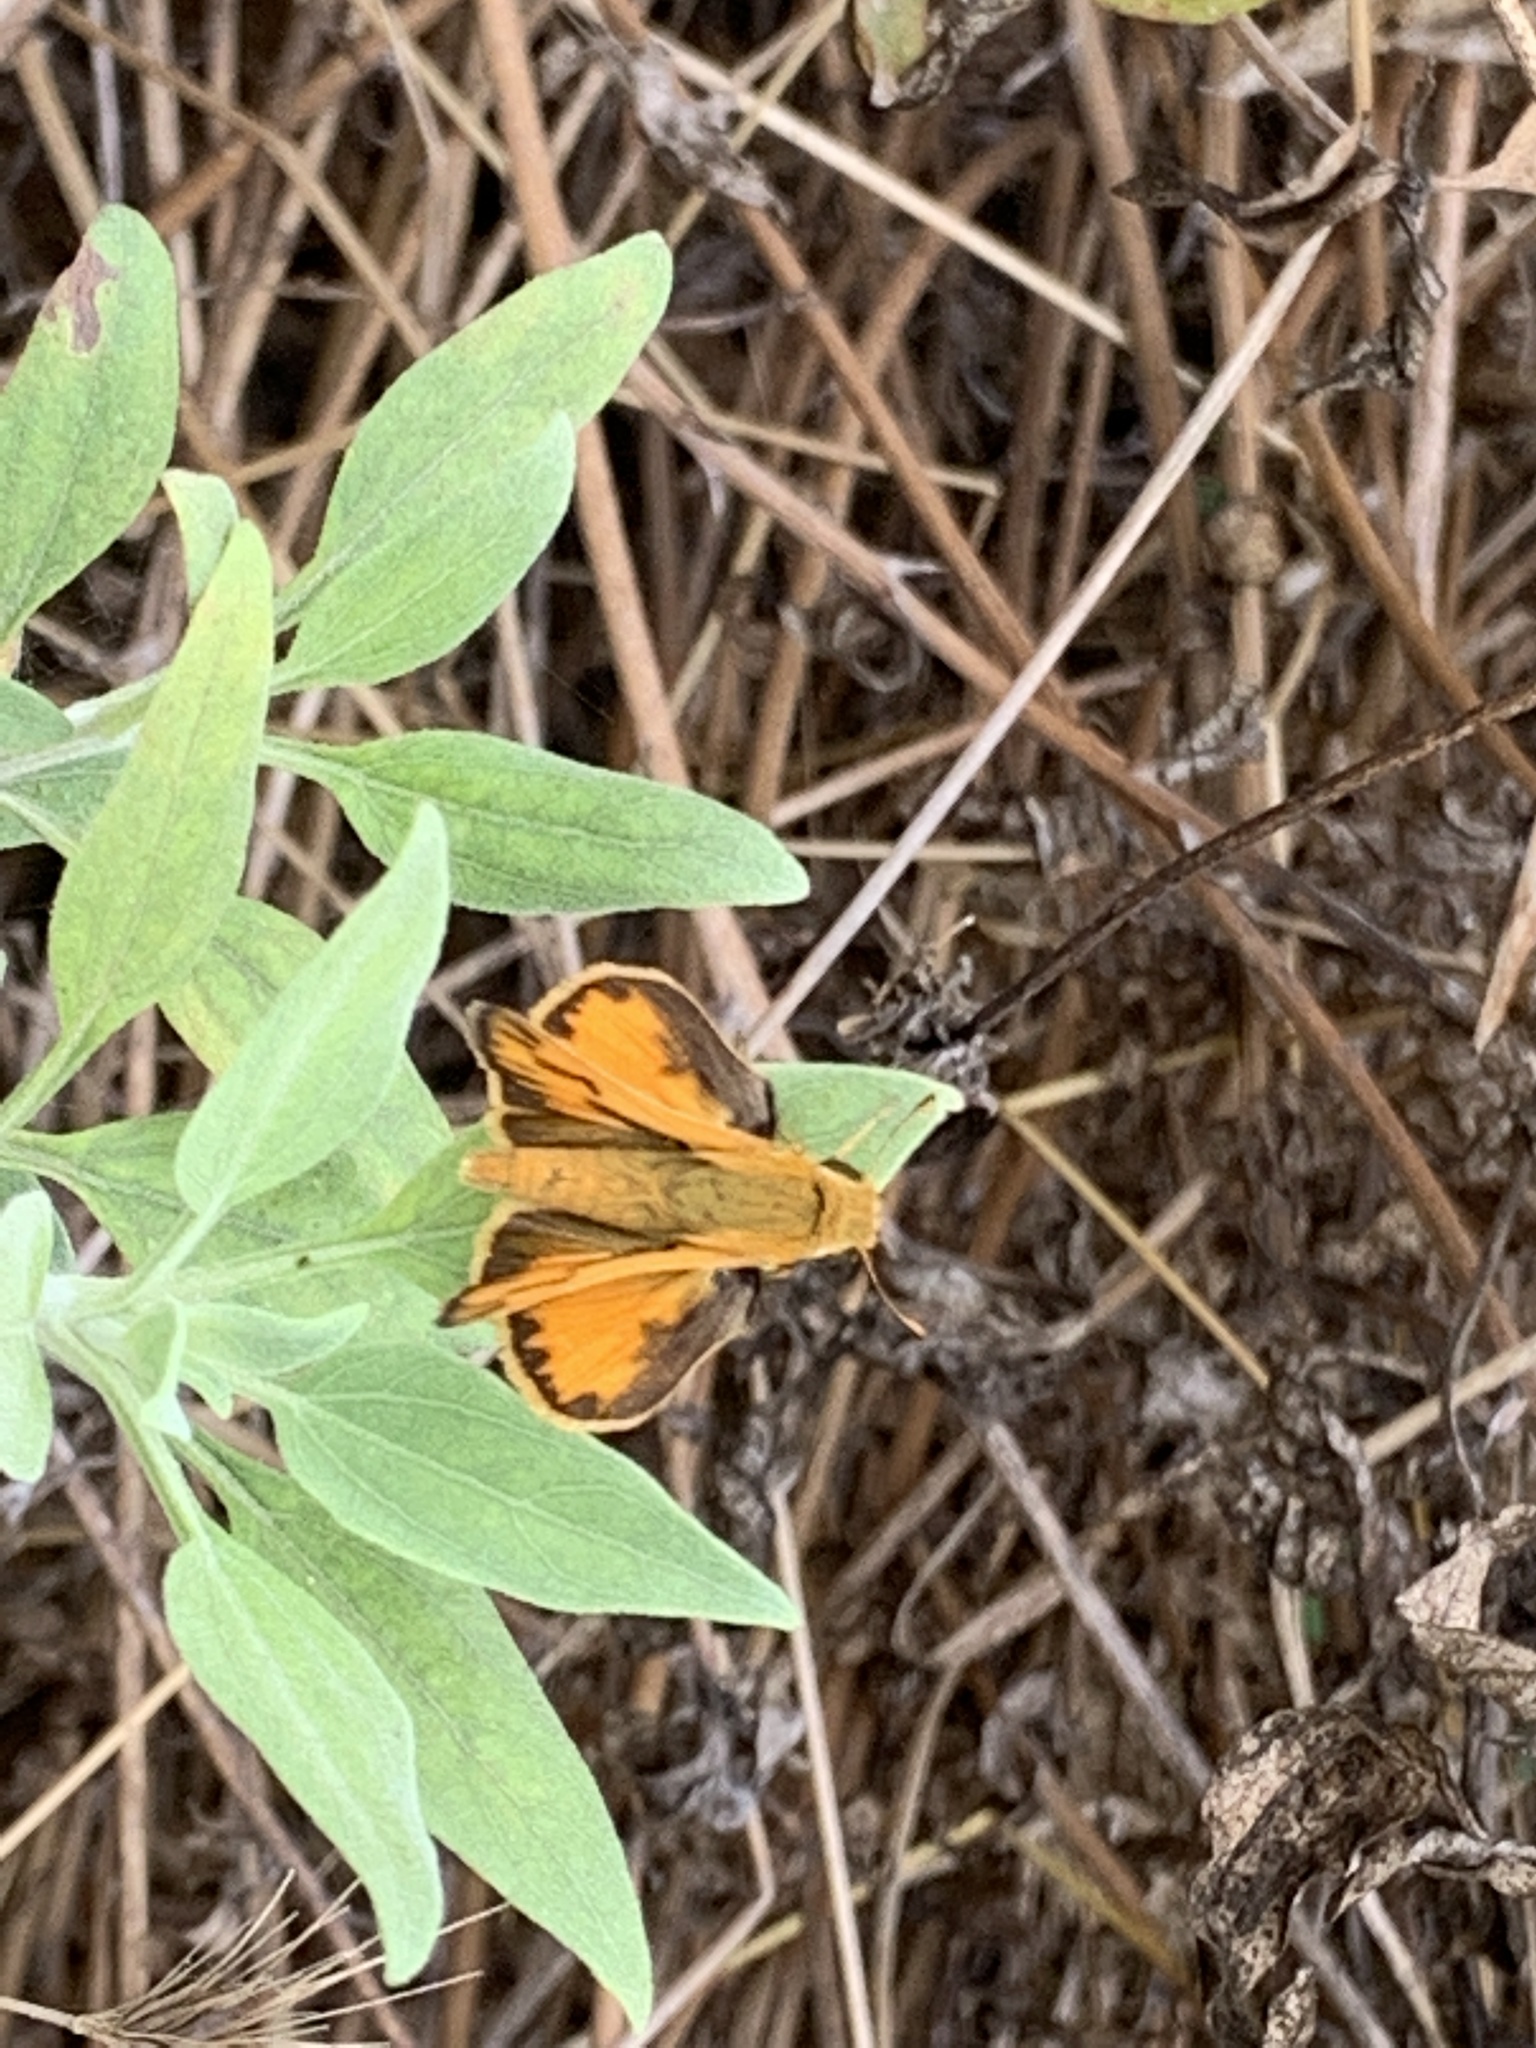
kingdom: Animalia
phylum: Arthropoda
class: Insecta
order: Lepidoptera
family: Hesperiidae
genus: Hylephila
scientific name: Hylephila phyleus
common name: Fiery skipper
